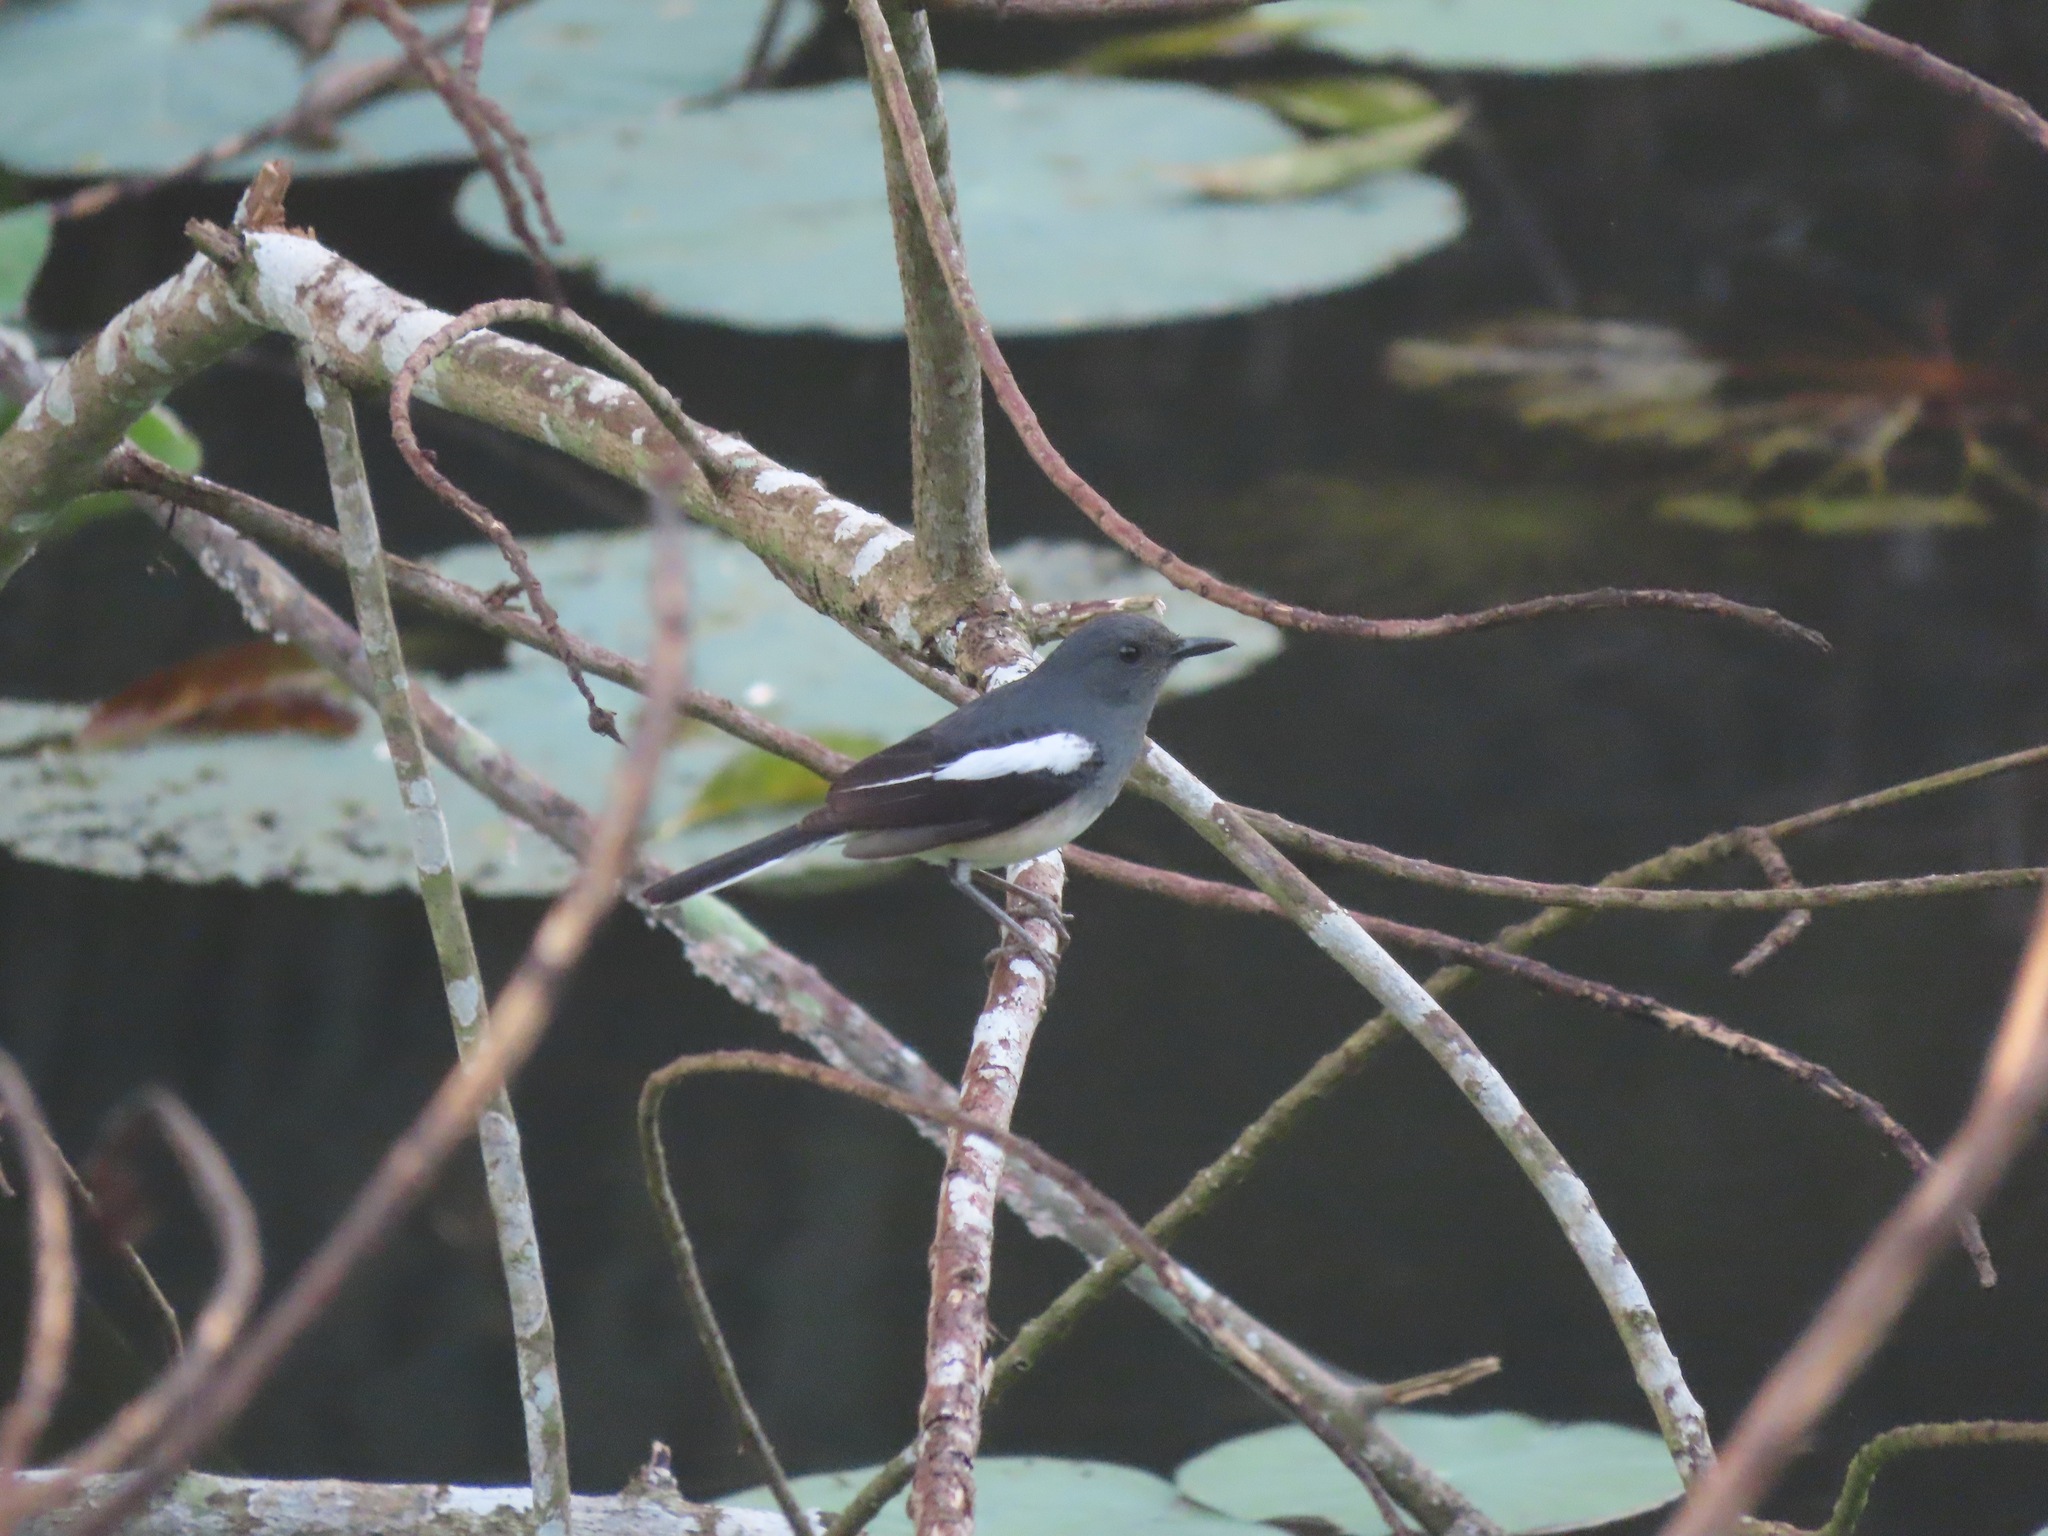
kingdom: Animalia
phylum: Chordata
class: Aves
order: Passeriformes
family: Muscicapidae
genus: Copsychus
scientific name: Copsychus saularis
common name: Oriental magpie-robin
